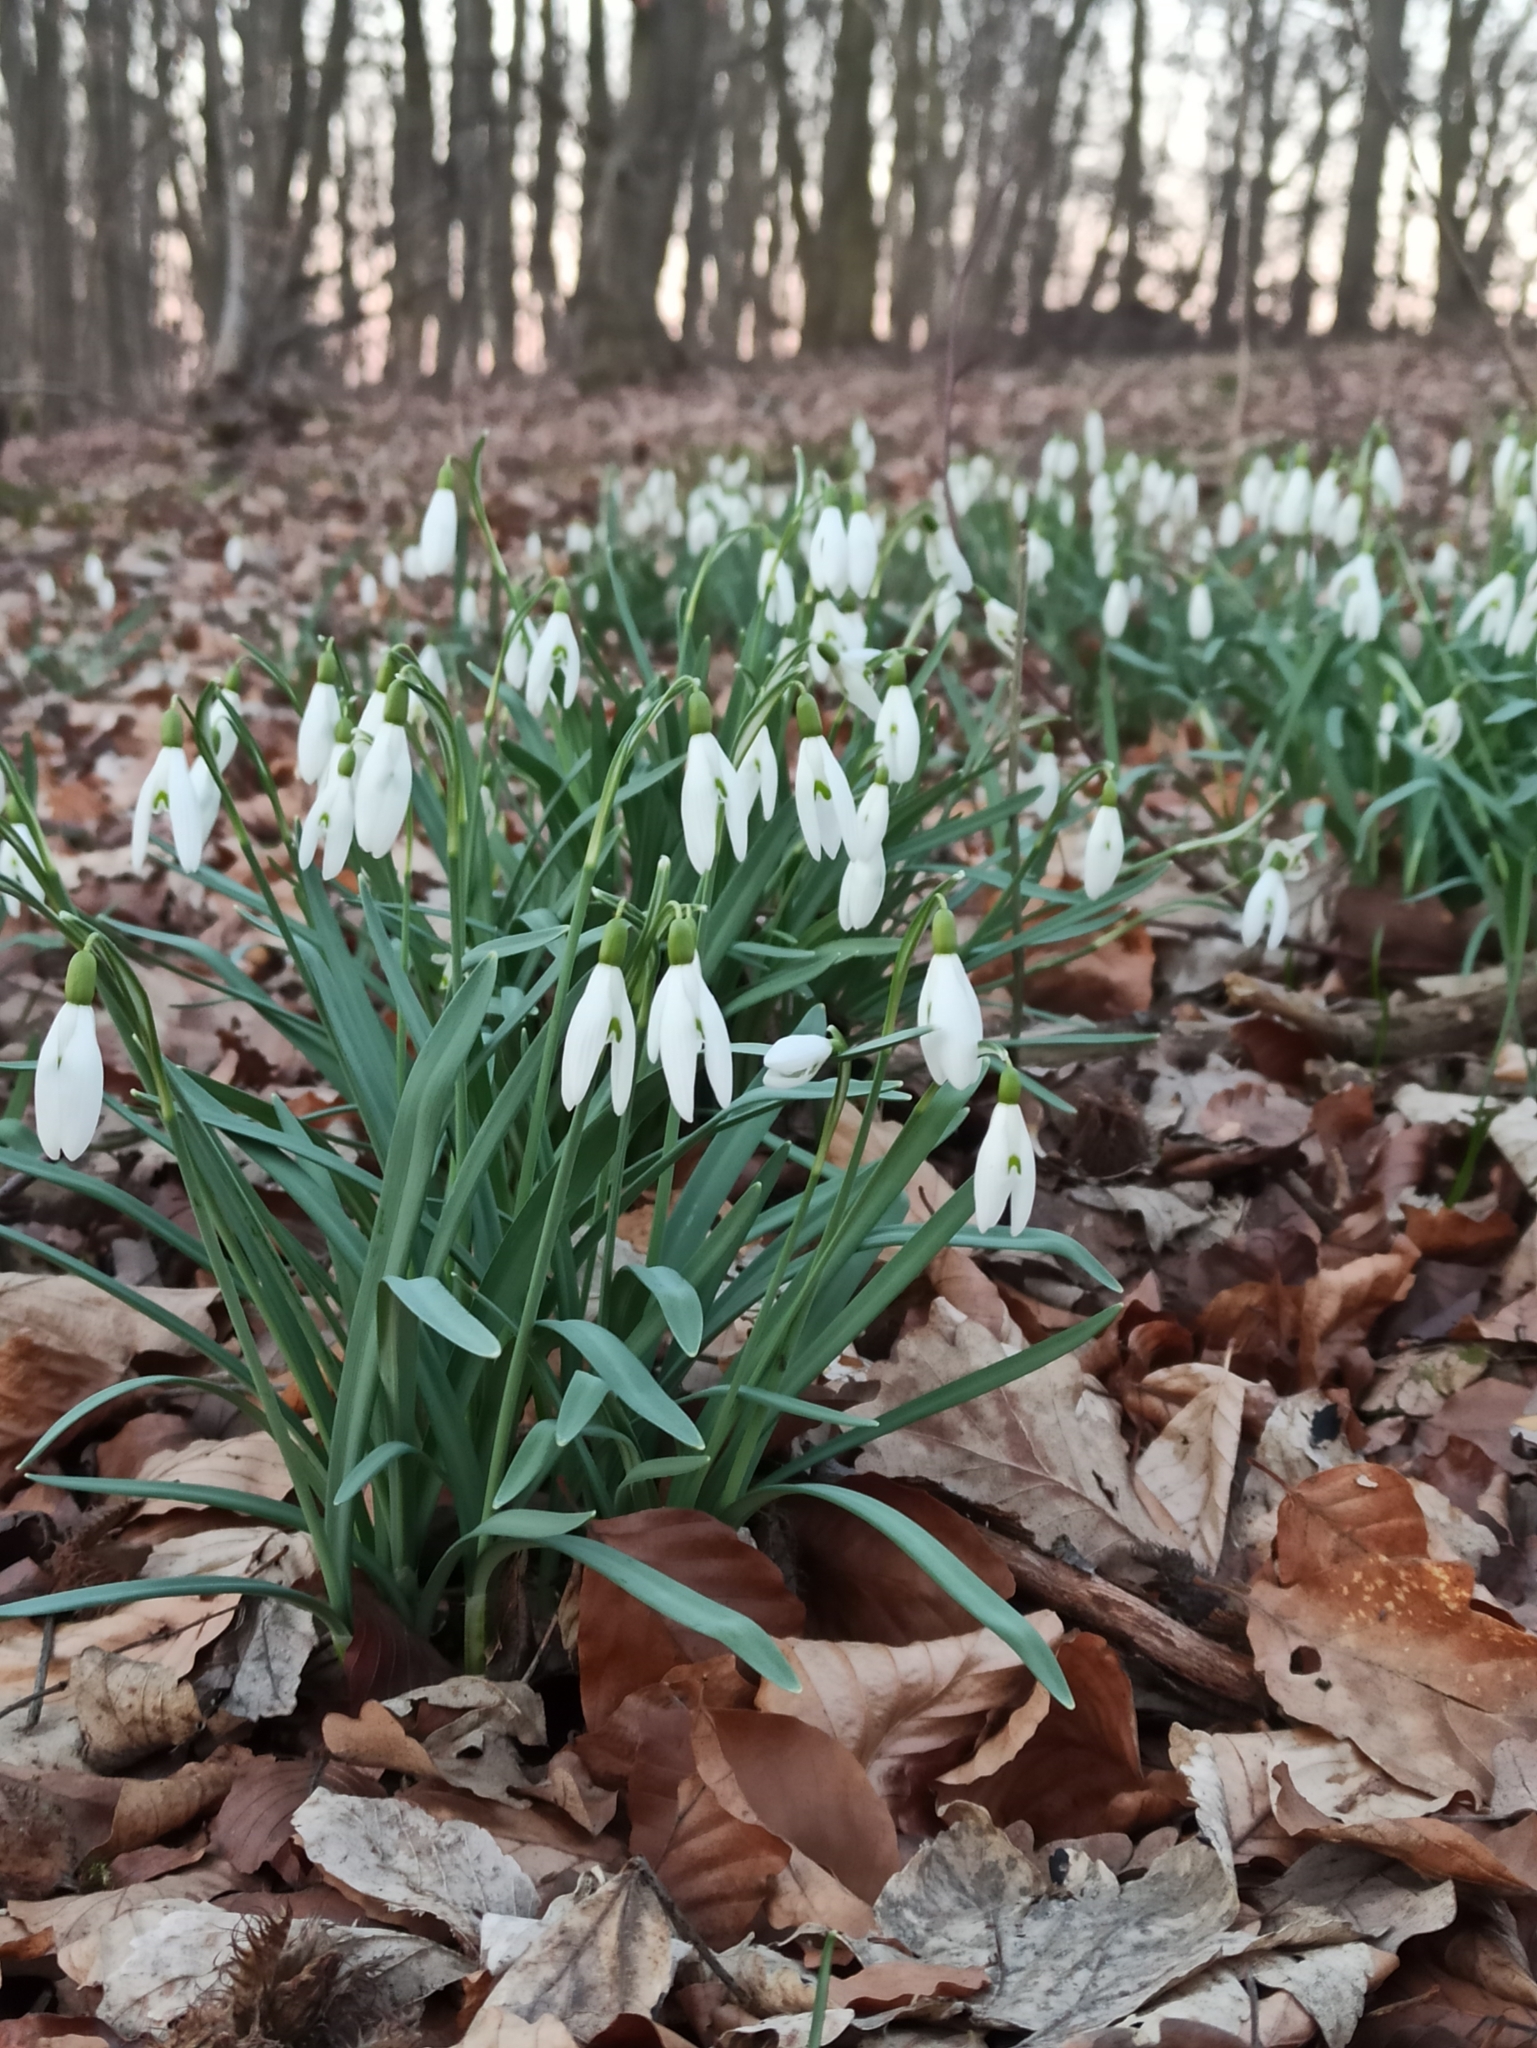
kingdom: Plantae
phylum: Tracheophyta
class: Liliopsida
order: Asparagales
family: Amaryllidaceae
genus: Galanthus
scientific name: Galanthus nivalis
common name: Snowdrop
